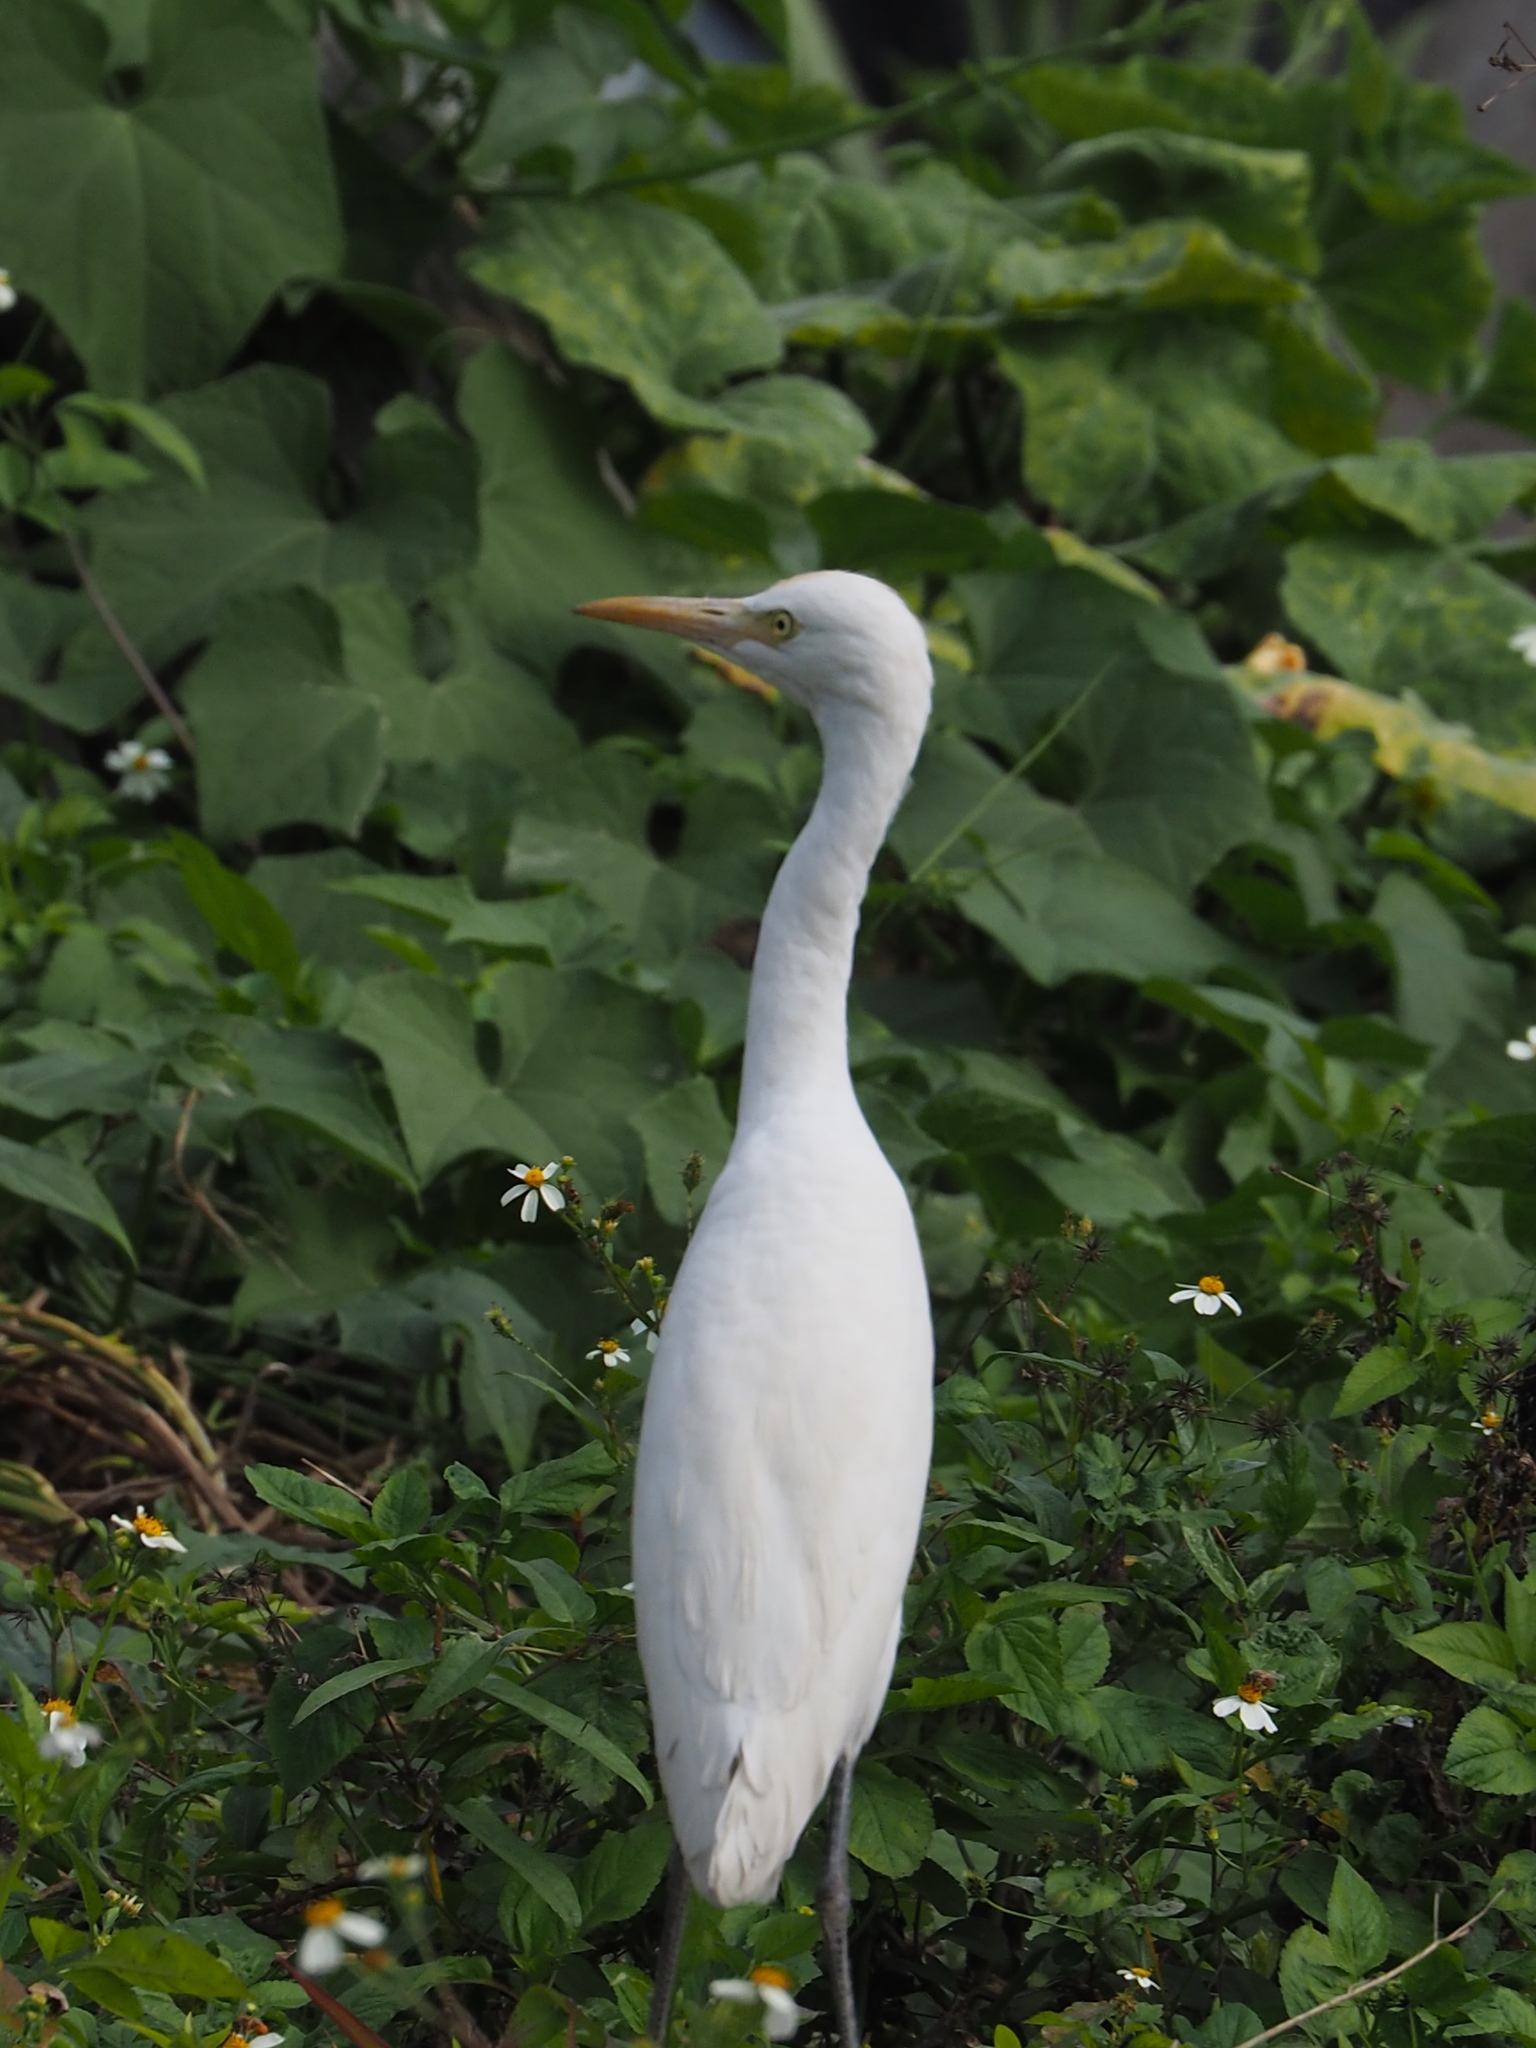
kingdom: Animalia
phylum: Chordata
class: Aves
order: Pelecaniformes
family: Ardeidae
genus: Bubulcus
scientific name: Bubulcus coromandus
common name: Eastern cattle egret
